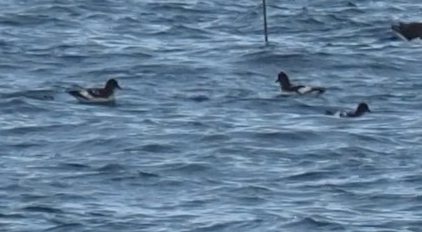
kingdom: Animalia
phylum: Chordata
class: Aves
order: Procellariiformes
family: Procellariidae
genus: Daption
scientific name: Daption capense
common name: Cape petrel
